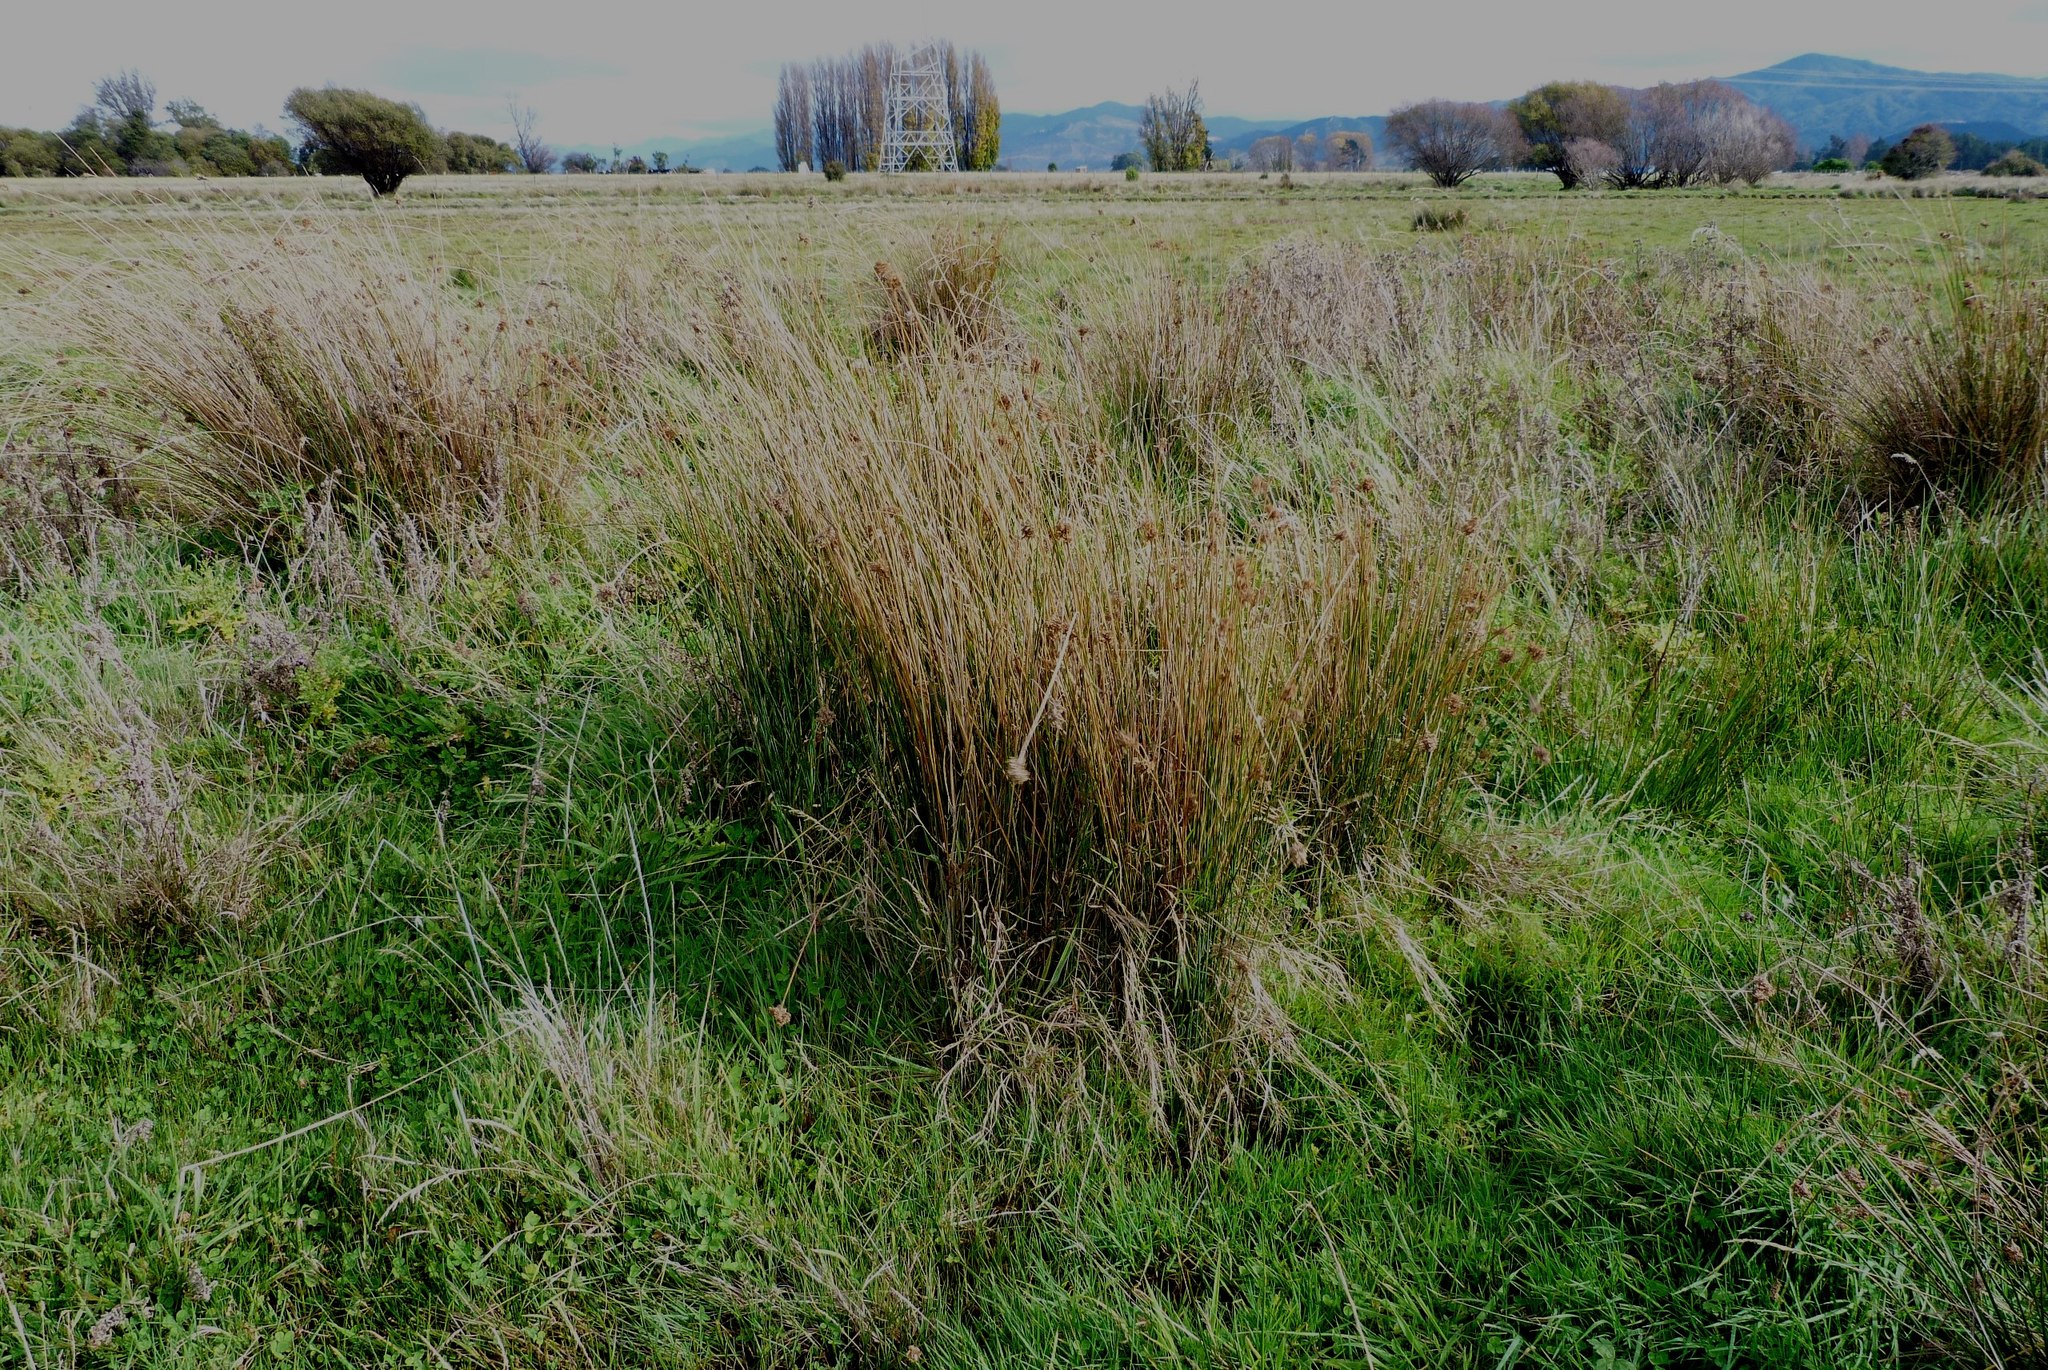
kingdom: Plantae
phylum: Tracheophyta
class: Liliopsida
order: Poales
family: Juncaceae
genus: Juncus
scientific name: Juncus pallidus
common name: Great soft-rush
